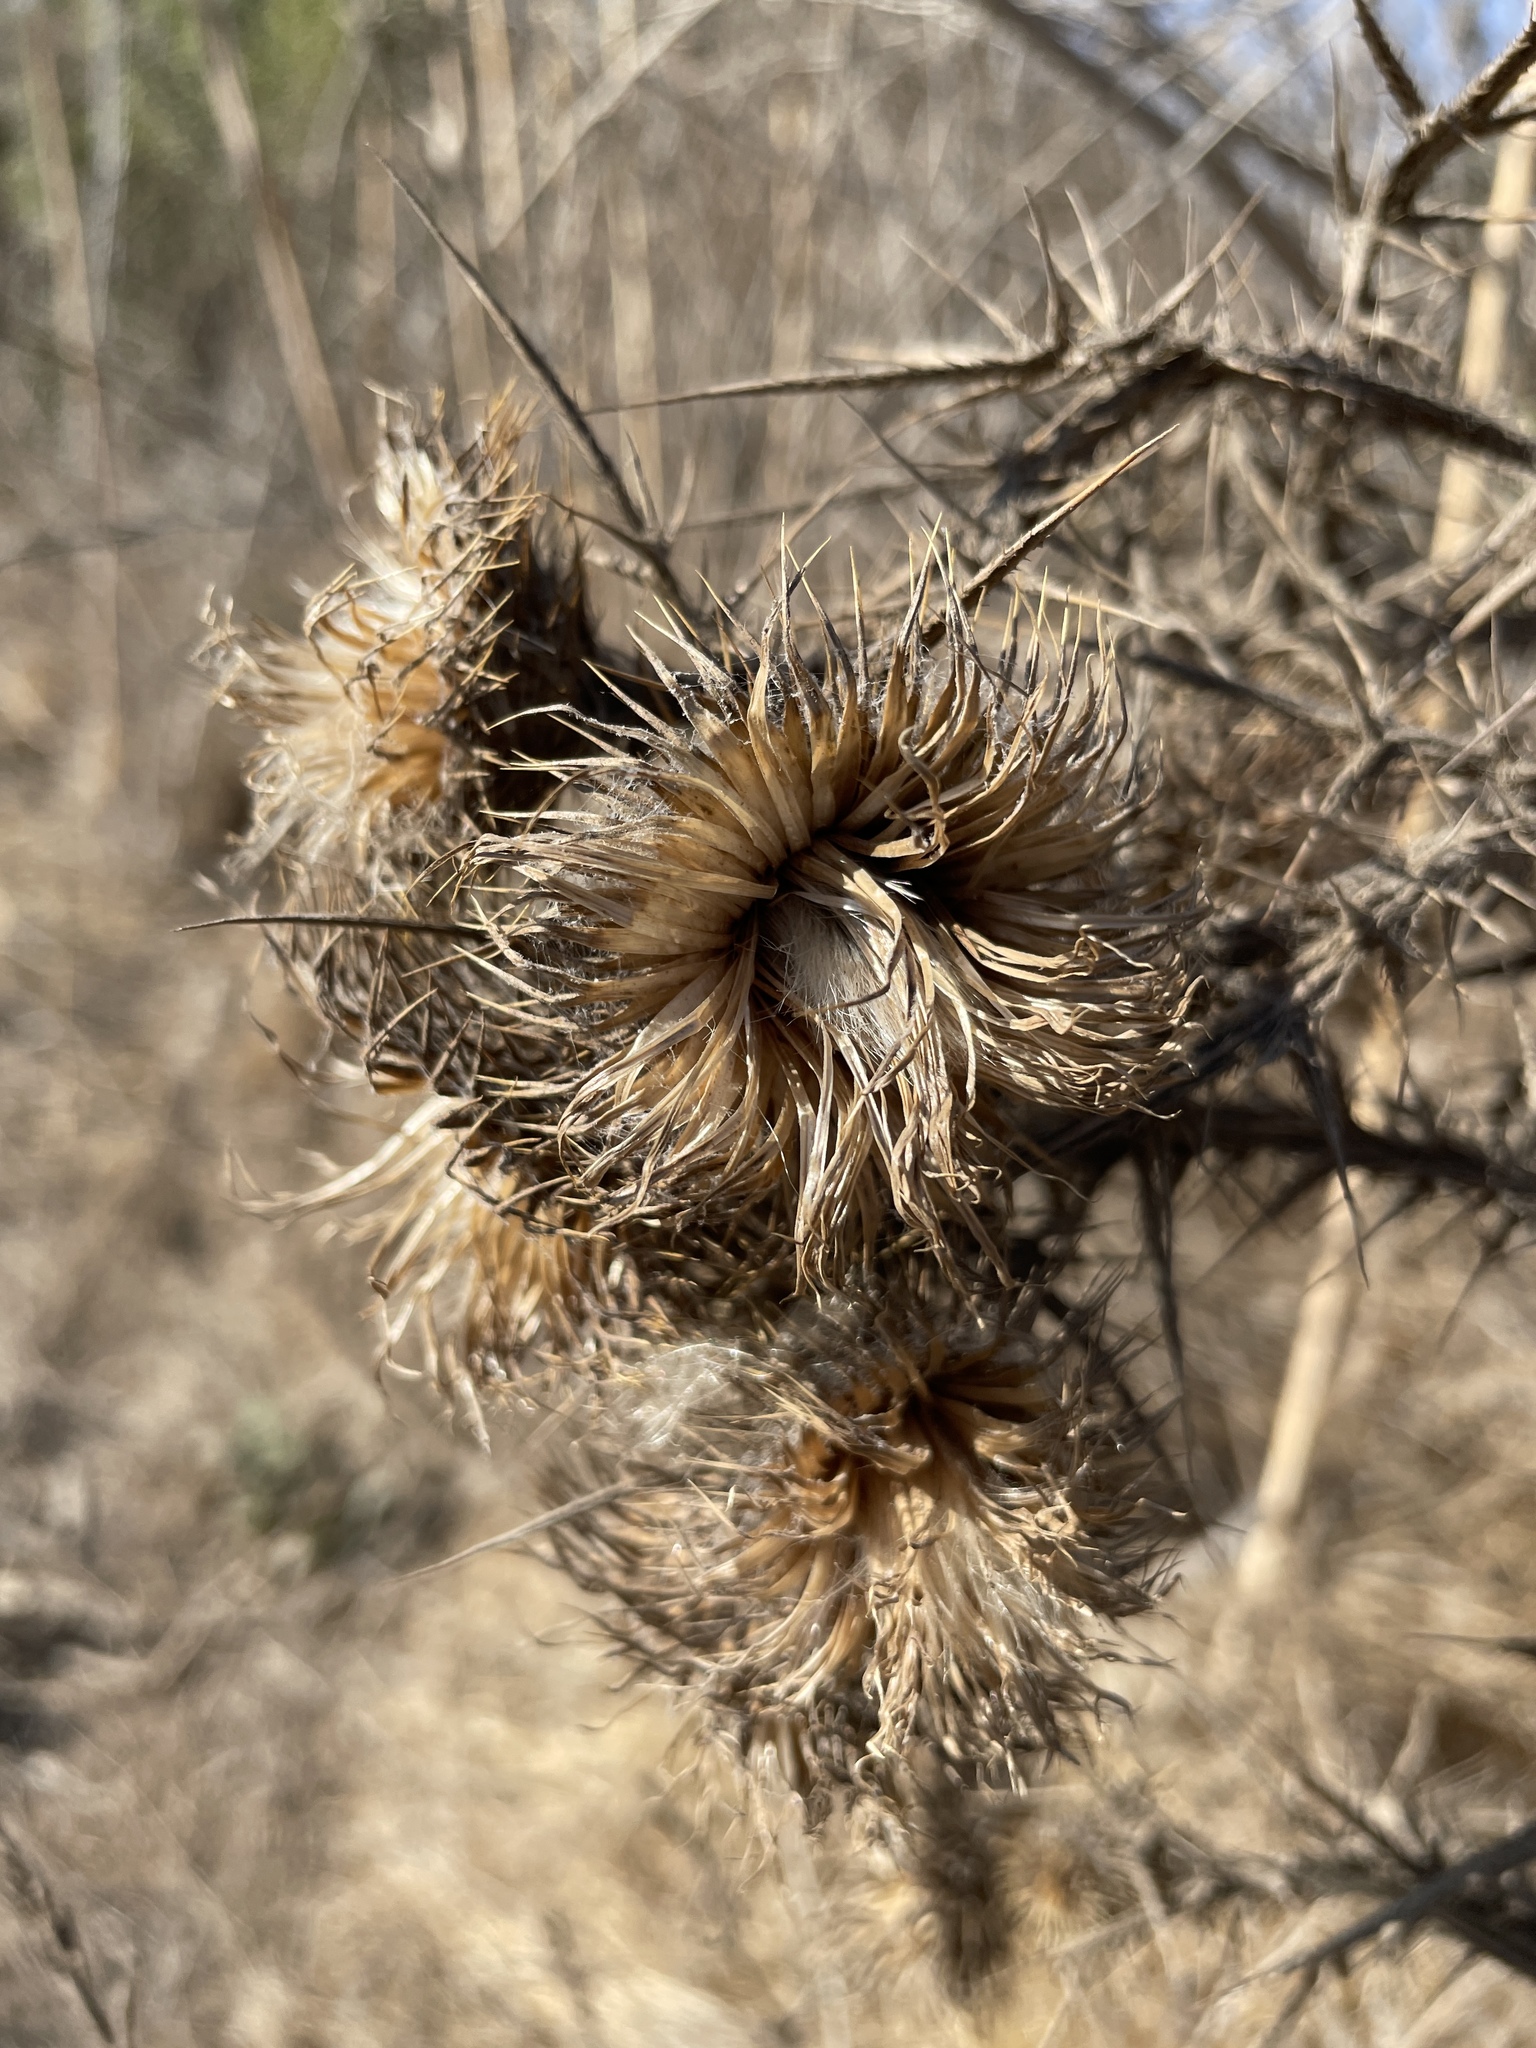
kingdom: Plantae
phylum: Tracheophyta
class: Magnoliopsida
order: Asterales
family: Asteraceae
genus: Cirsium
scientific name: Cirsium vulgare
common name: Bull thistle
